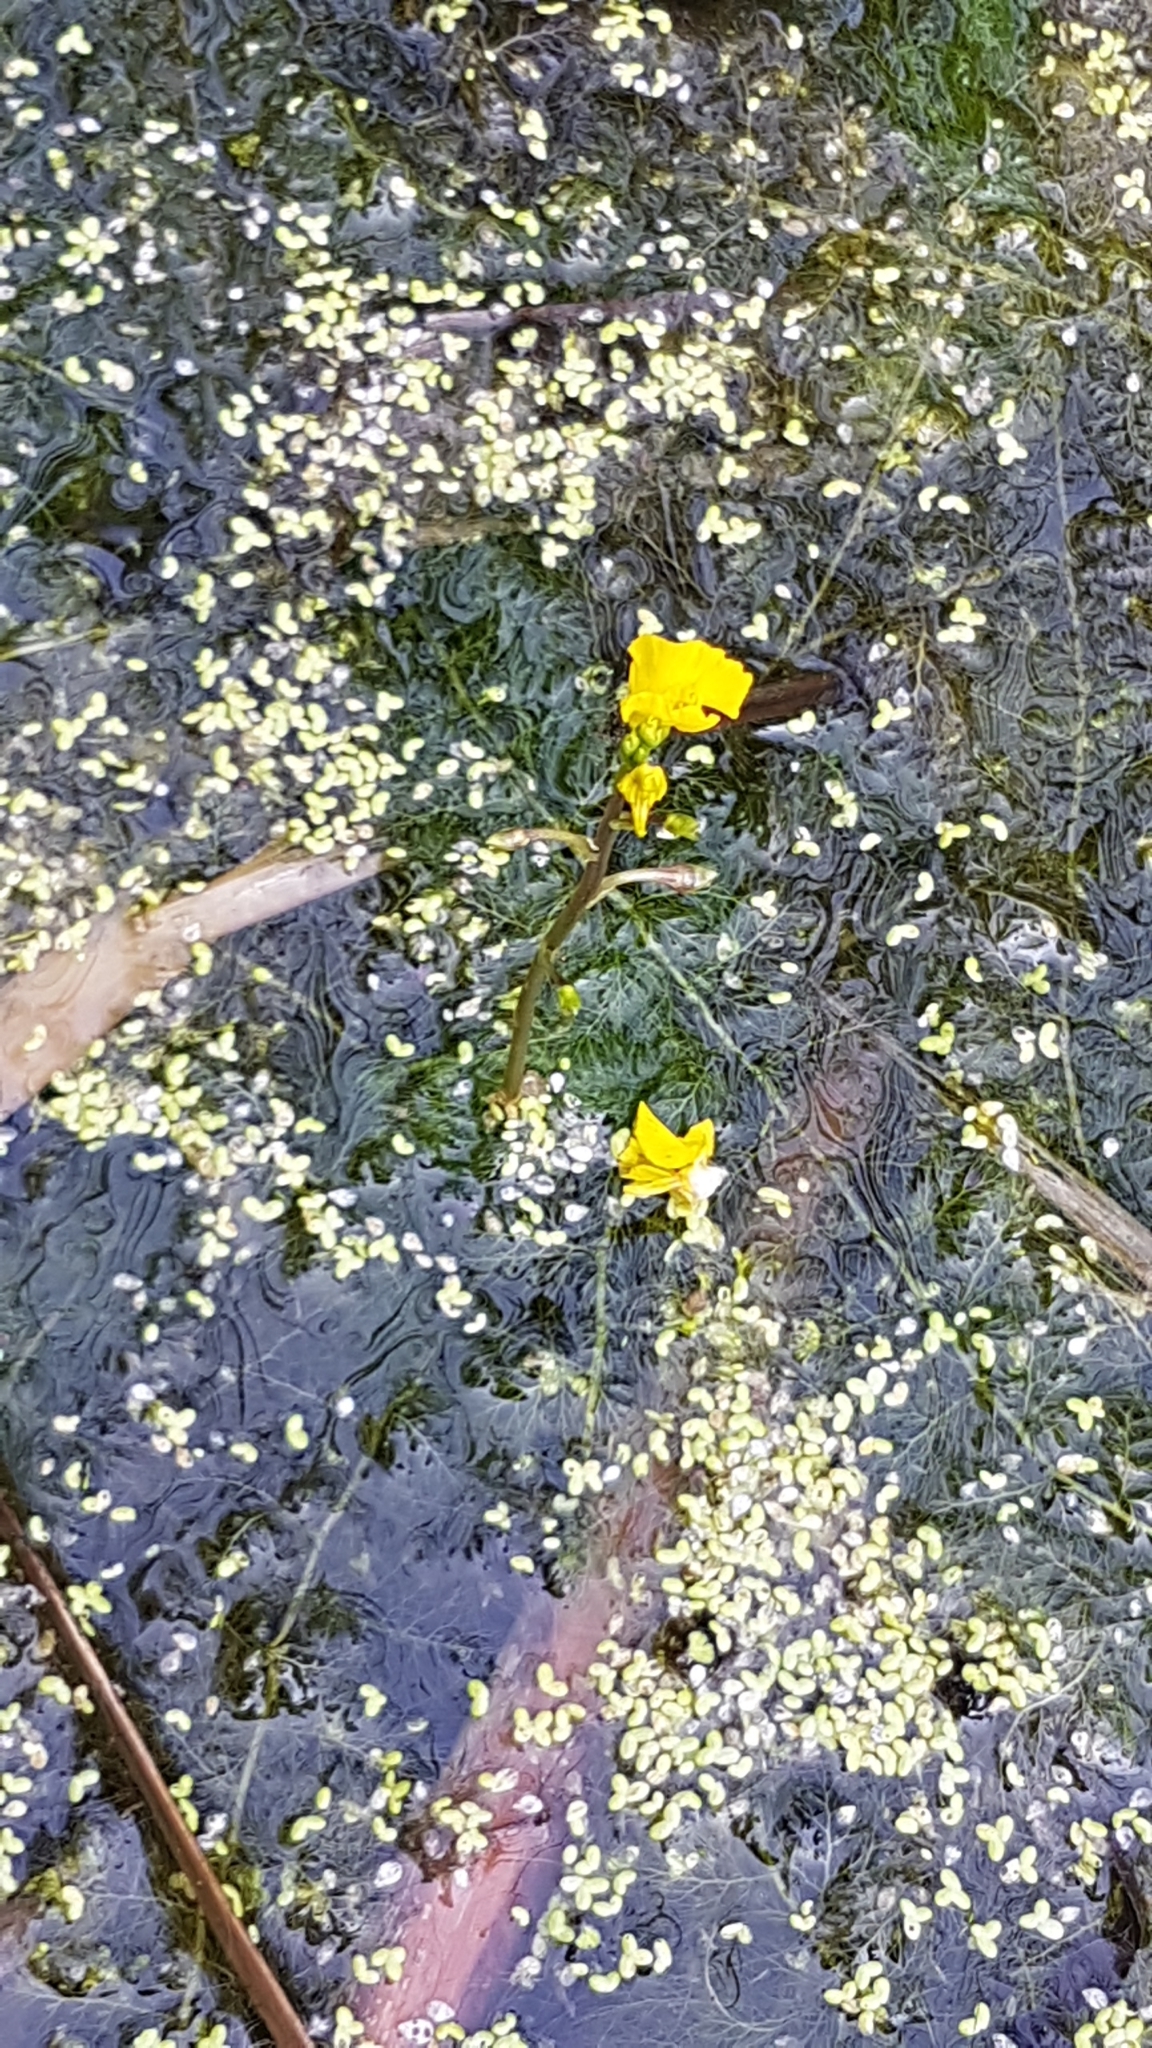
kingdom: Plantae
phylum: Tracheophyta
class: Magnoliopsida
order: Lamiales
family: Lentibulariaceae
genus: Utricularia
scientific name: Utricularia macrorhiza
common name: Common bladderwort
